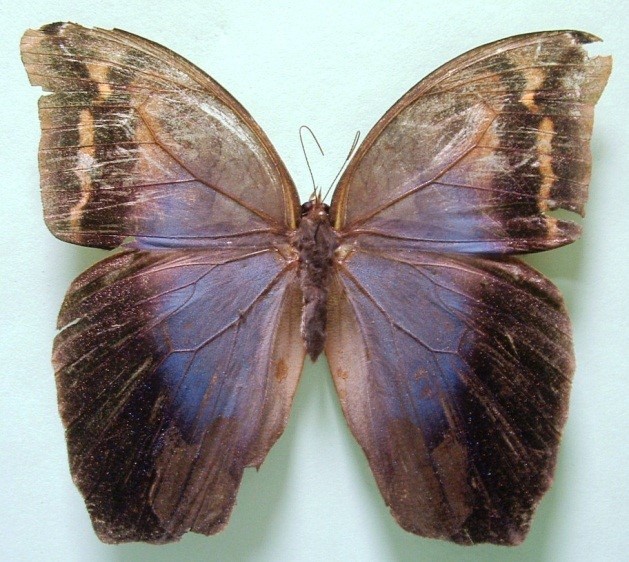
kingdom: Animalia
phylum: Arthropoda
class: Insecta
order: Lepidoptera
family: Nymphalidae
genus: Eryphanis
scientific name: Eryphanis lycomedon
